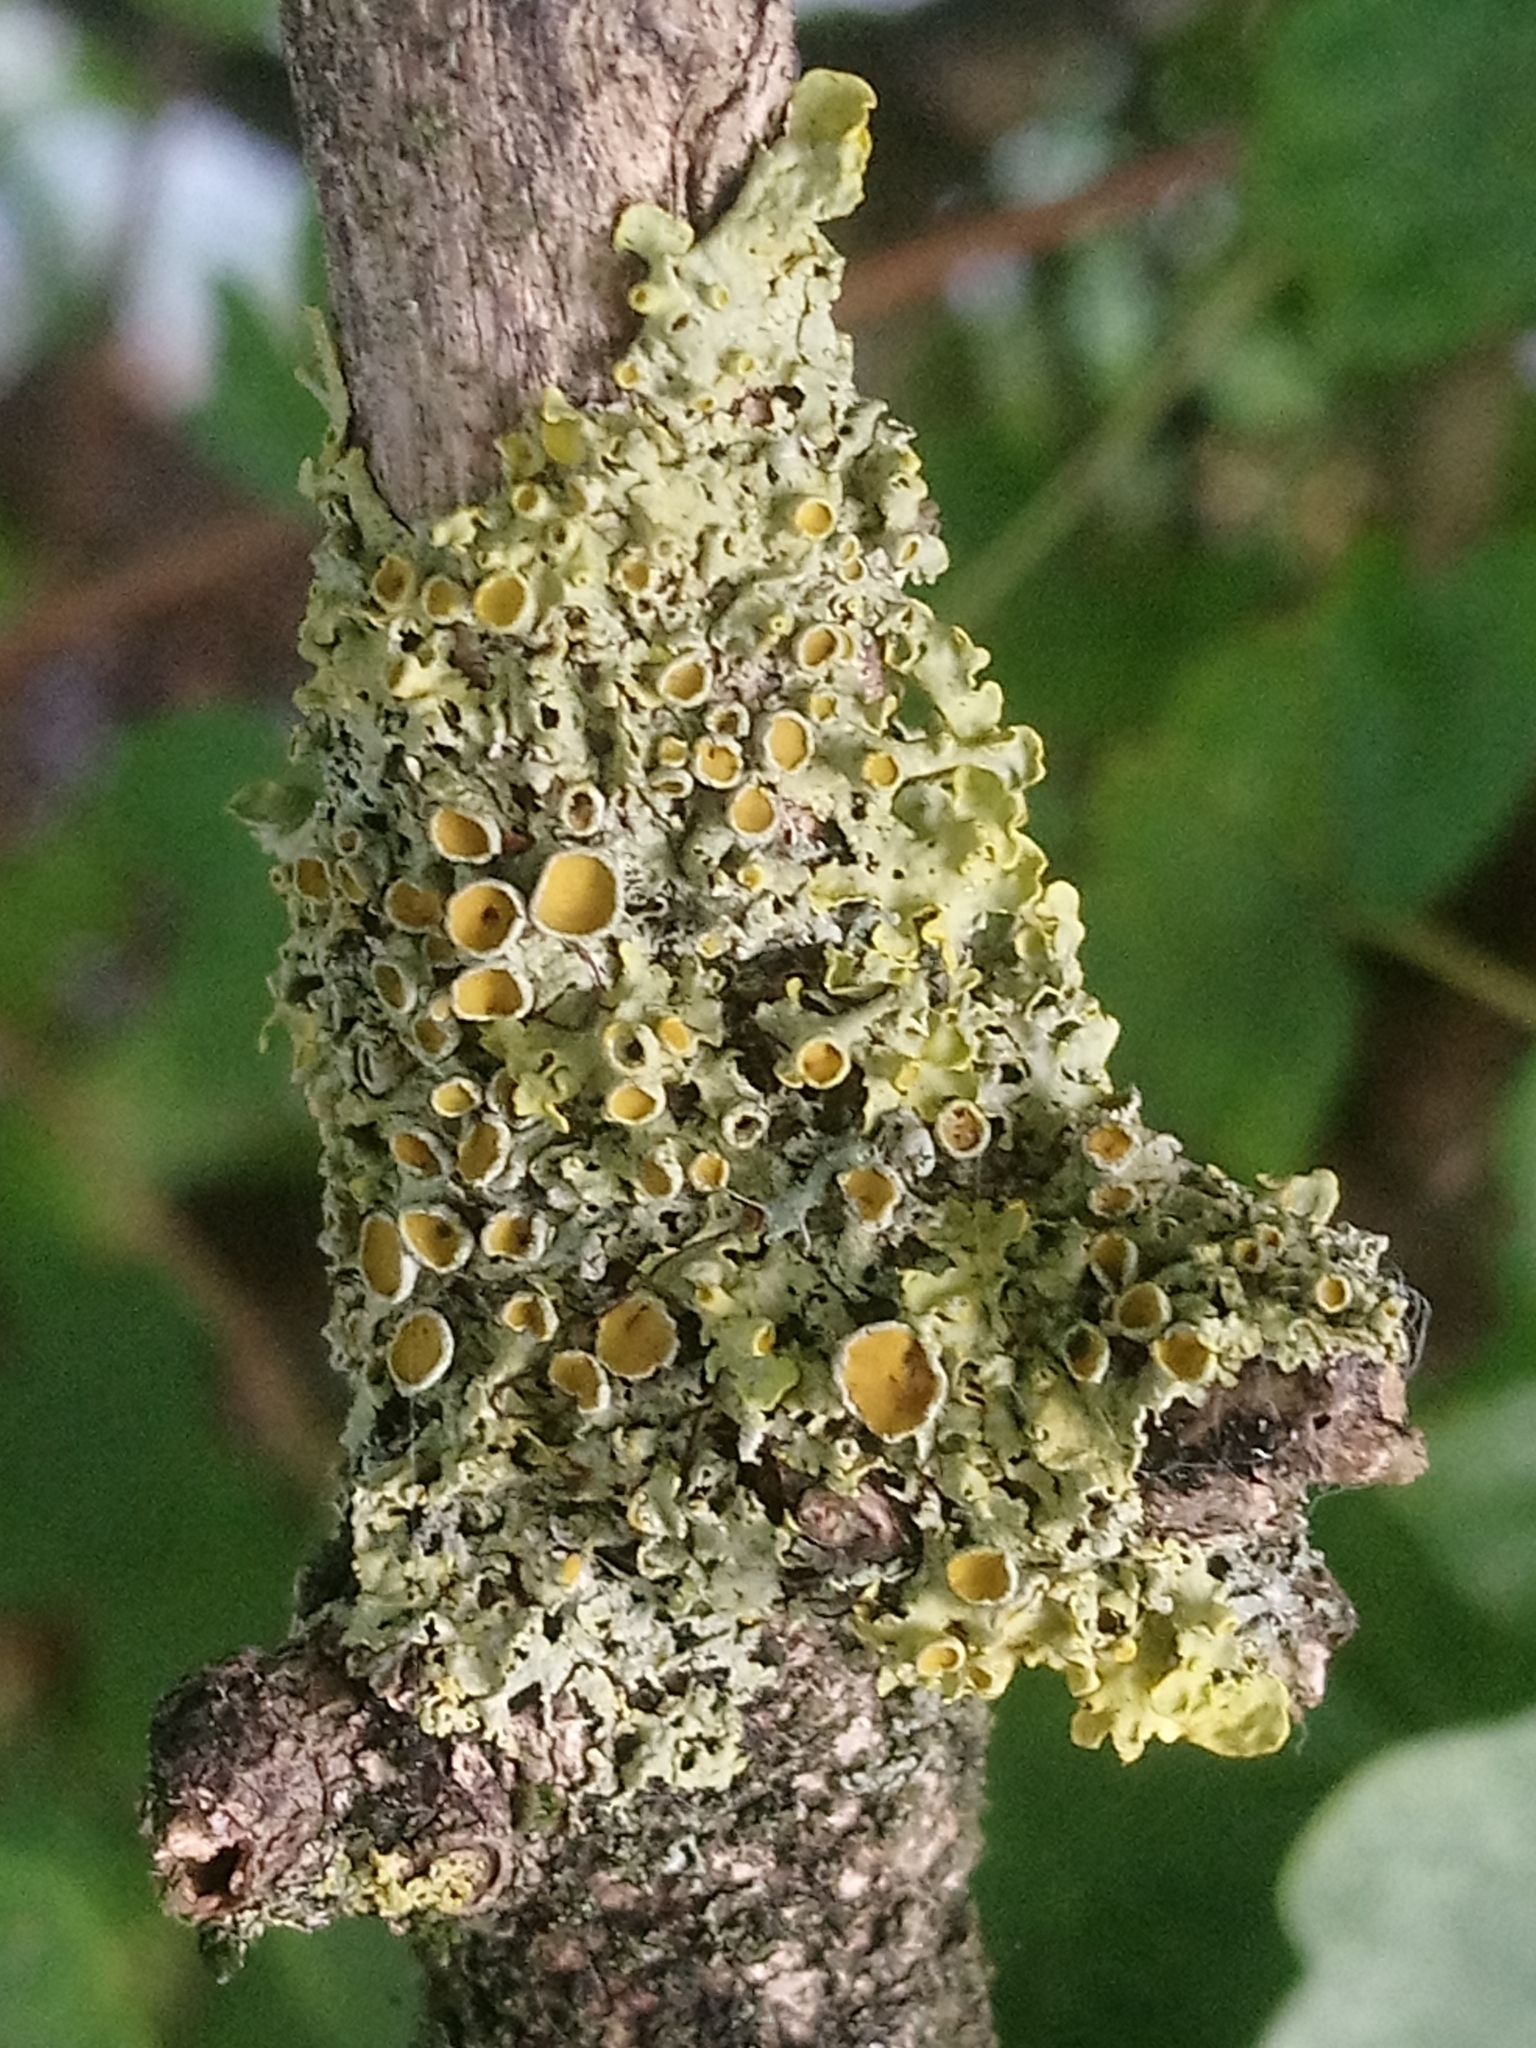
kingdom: Fungi
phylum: Ascomycota
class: Lecanoromycetes
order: Teloschistales
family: Teloschistaceae
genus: Xanthoria
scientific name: Xanthoria parietina
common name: Common orange lichen
